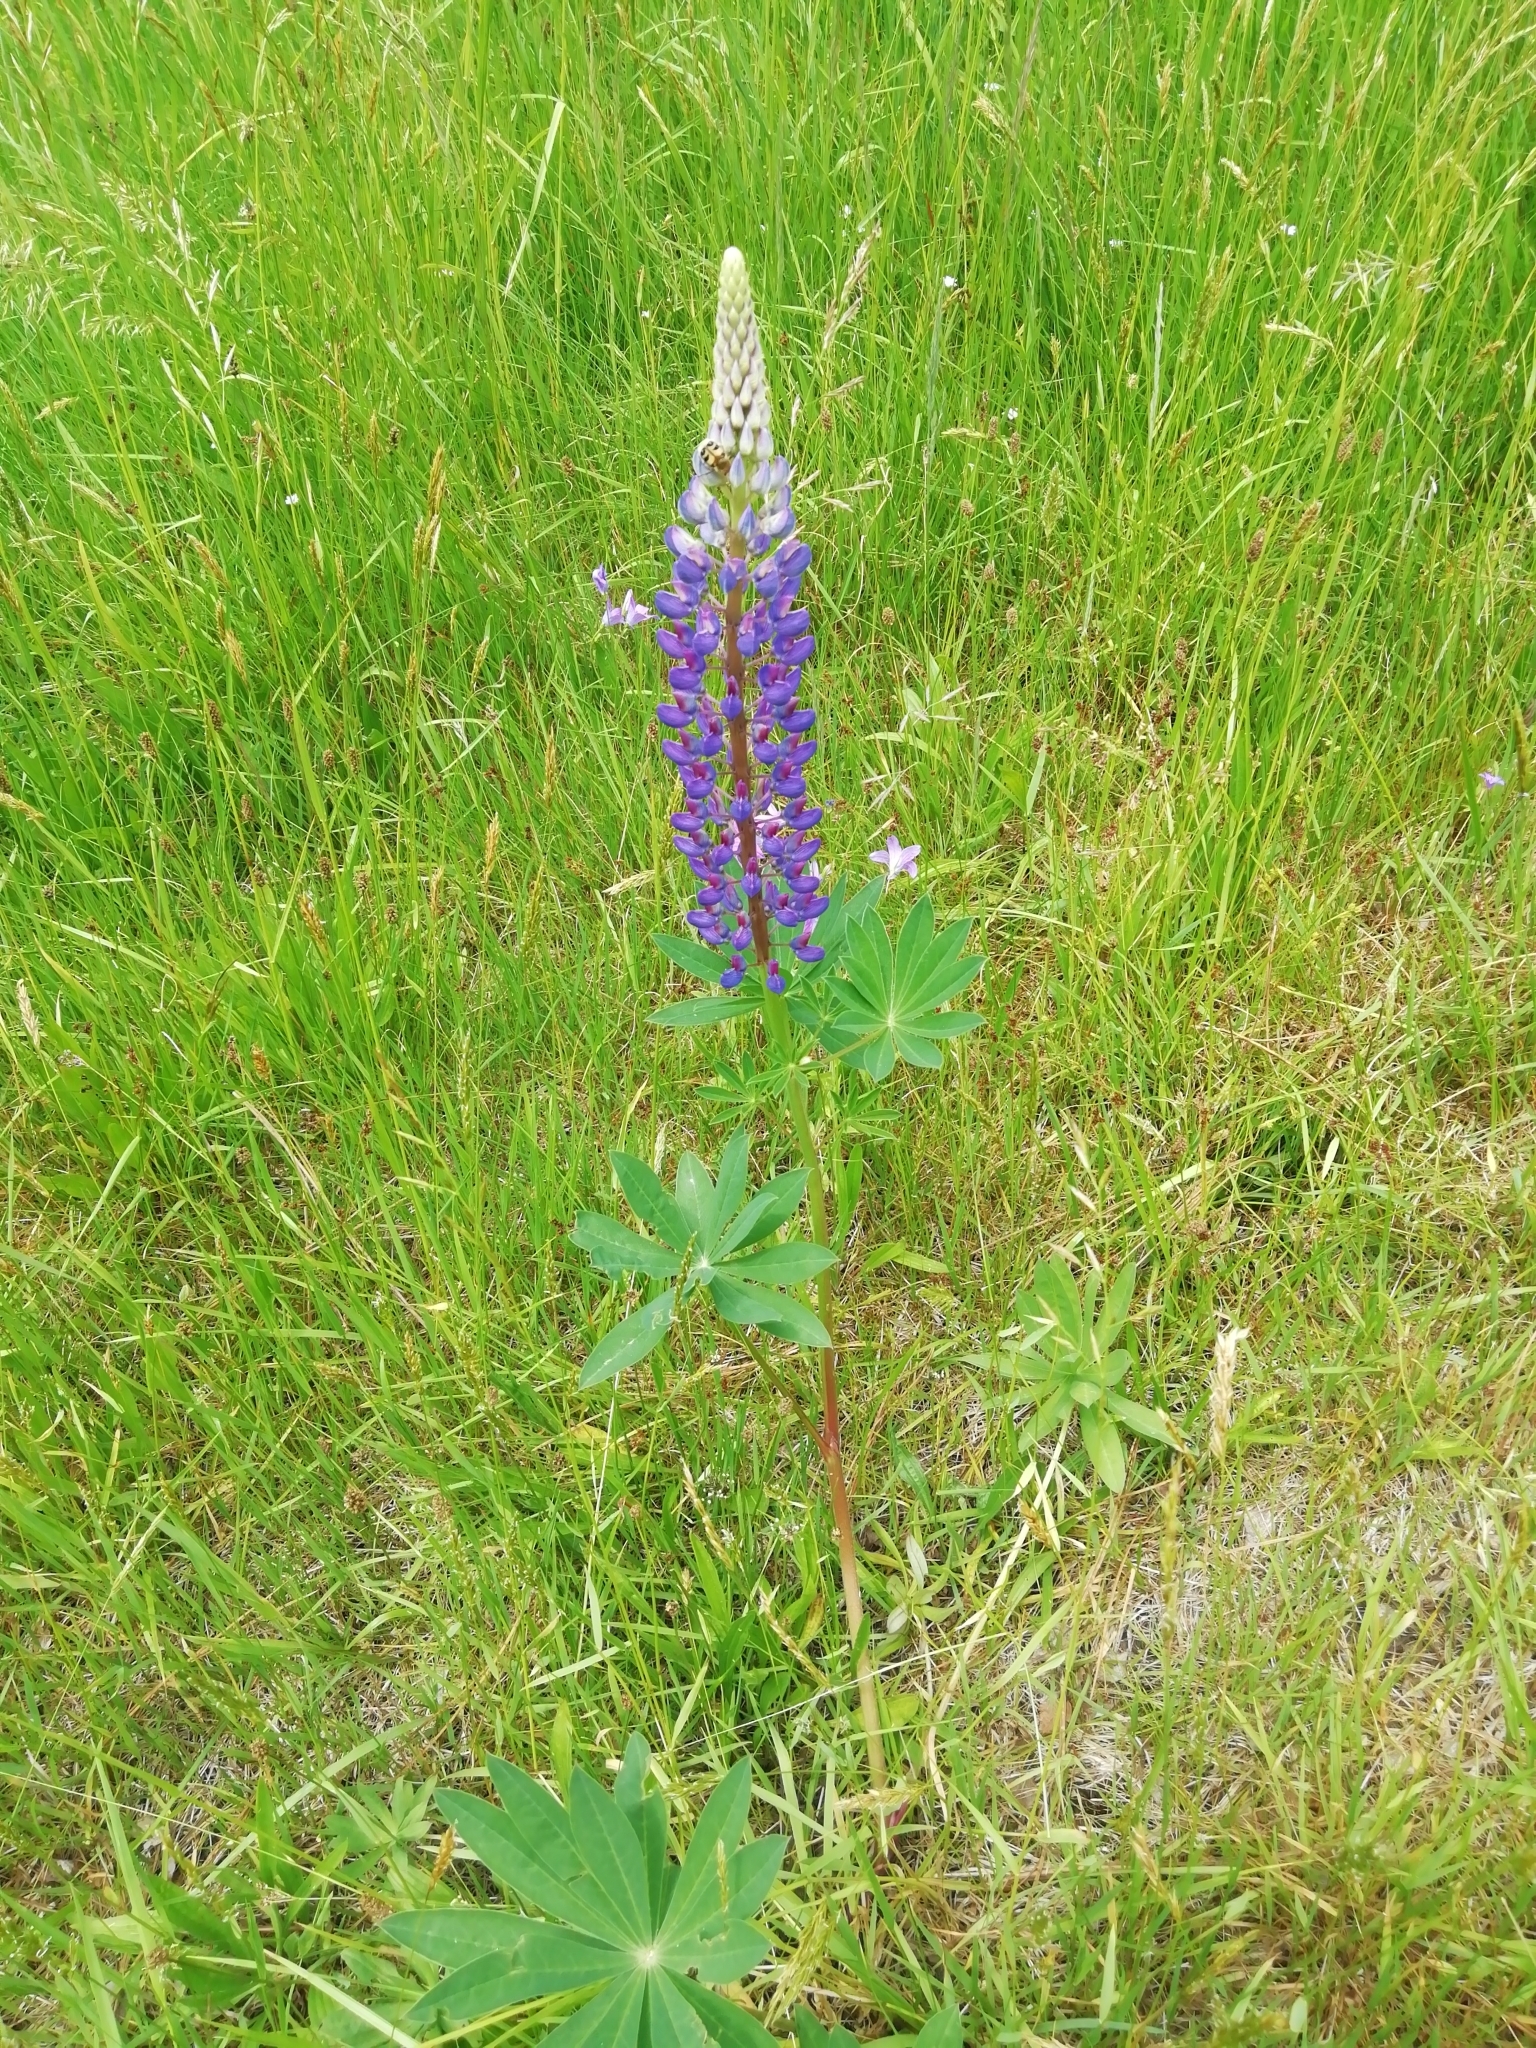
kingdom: Plantae
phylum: Tracheophyta
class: Magnoliopsida
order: Fabales
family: Fabaceae
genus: Lupinus
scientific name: Lupinus polyphyllus
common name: Garden lupin
